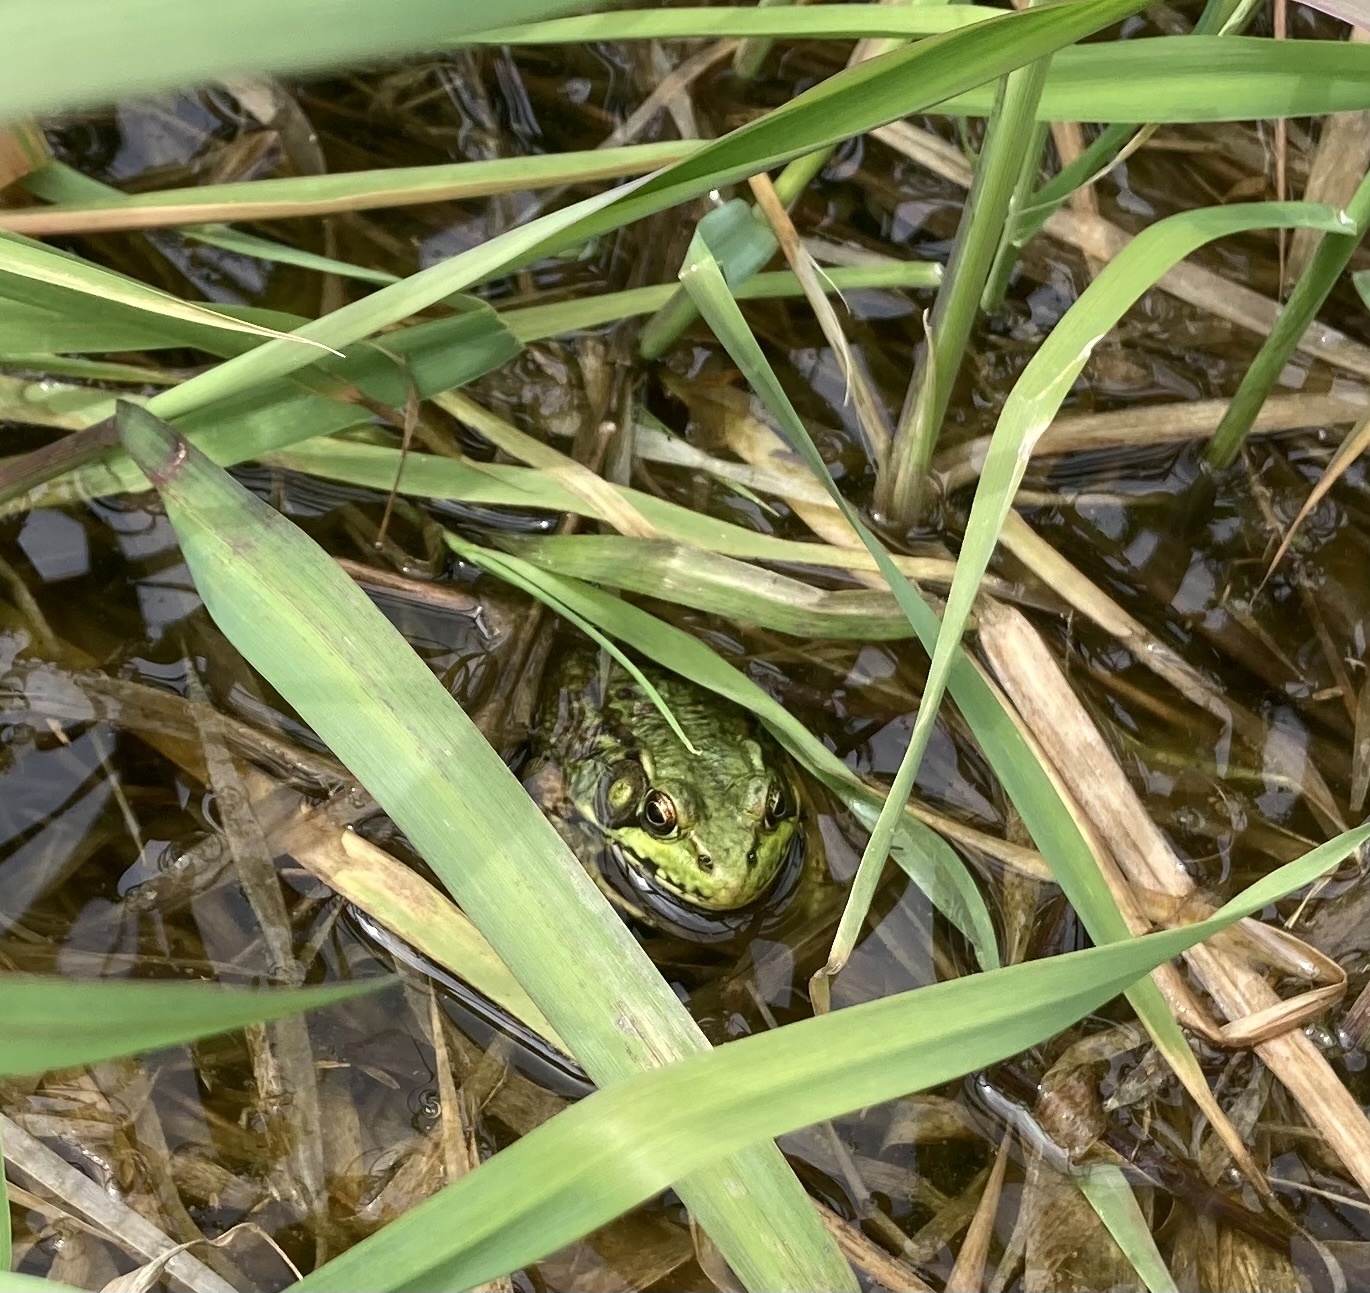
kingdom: Animalia
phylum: Chordata
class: Amphibia
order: Anura
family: Ranidae
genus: Lithobates
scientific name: Lithobates clamitans
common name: Green frog
